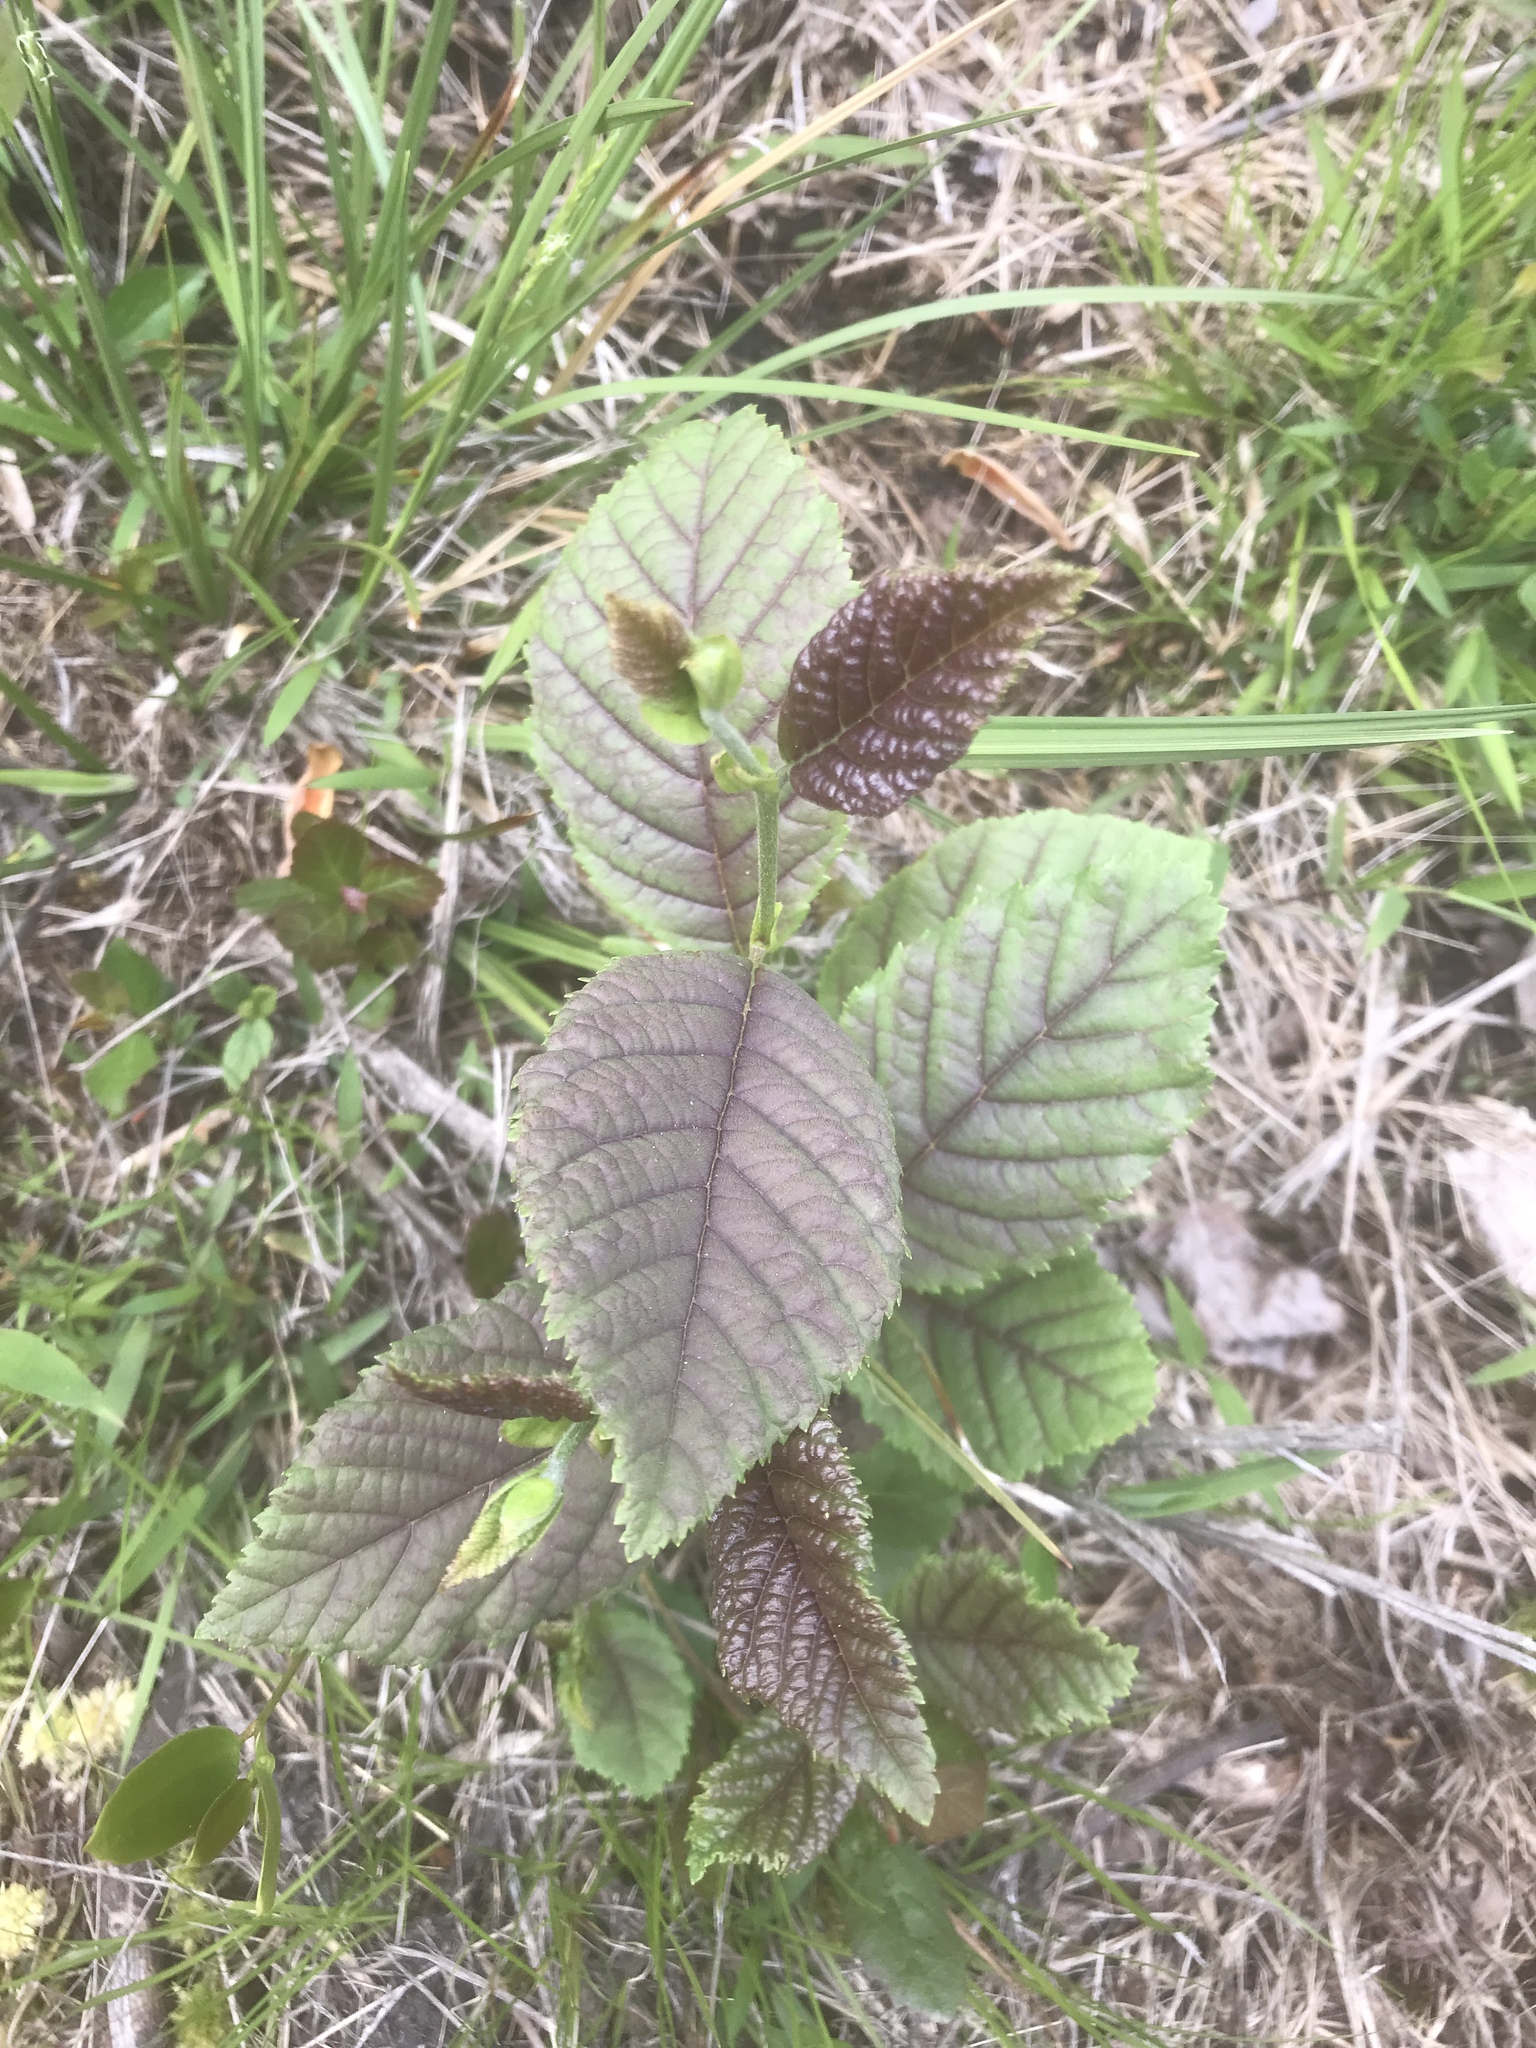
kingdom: Plantae
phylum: Tracheophyta
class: Magnoliopsida
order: Fagales
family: Betulaceae
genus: Alnus
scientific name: Alnus serrulata
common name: Hazel alder
